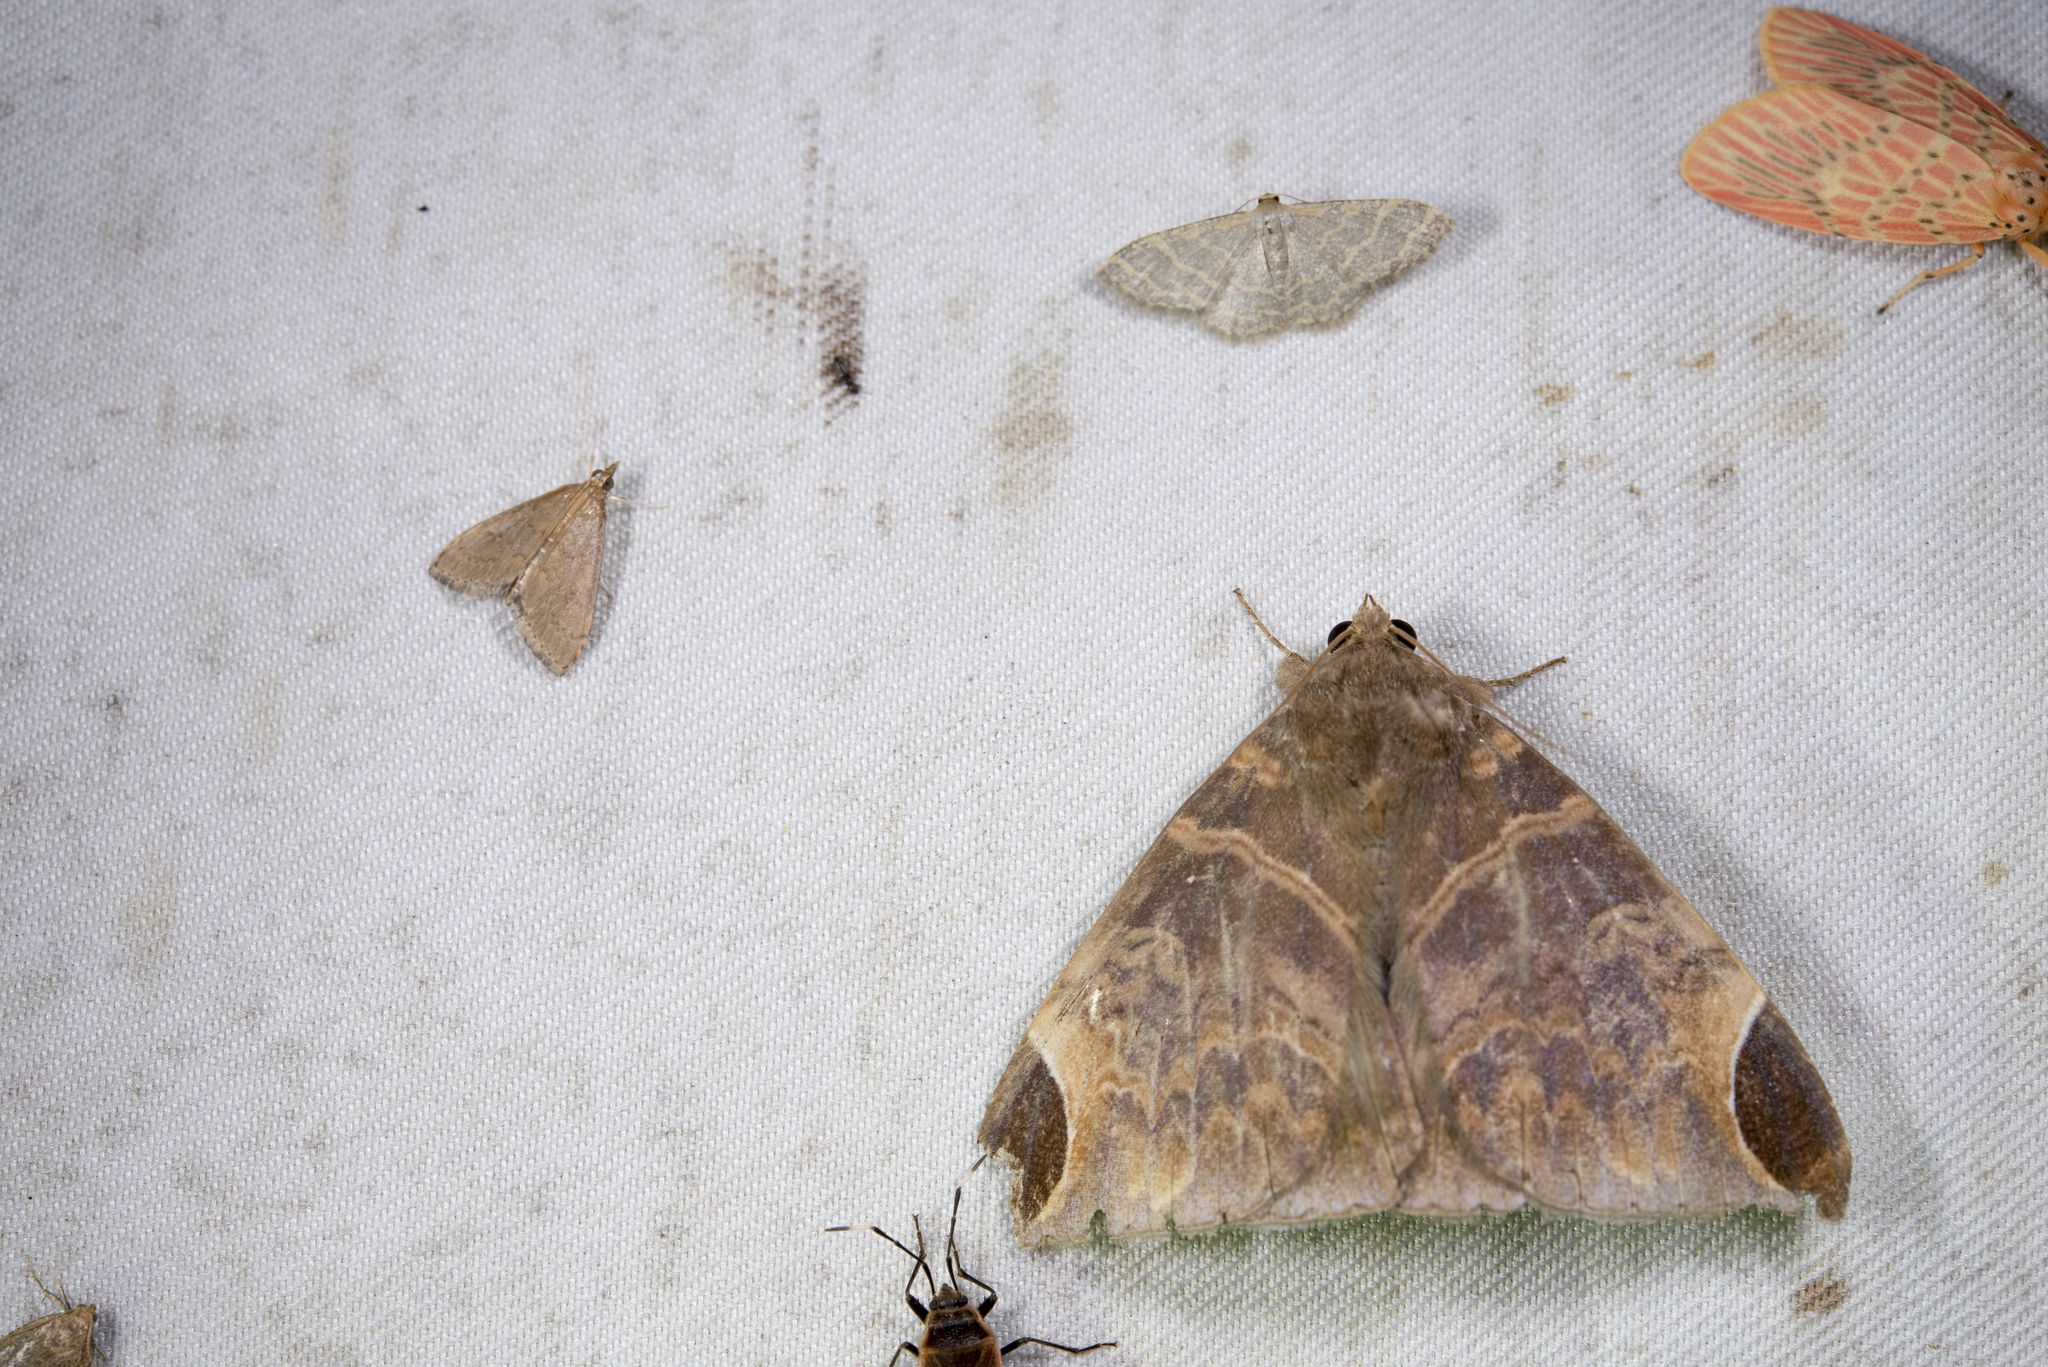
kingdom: Animalia
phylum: Arthropoda
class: Insecta
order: Lepidoptera
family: Erebidae
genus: Pindara
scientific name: Pindara illibata
